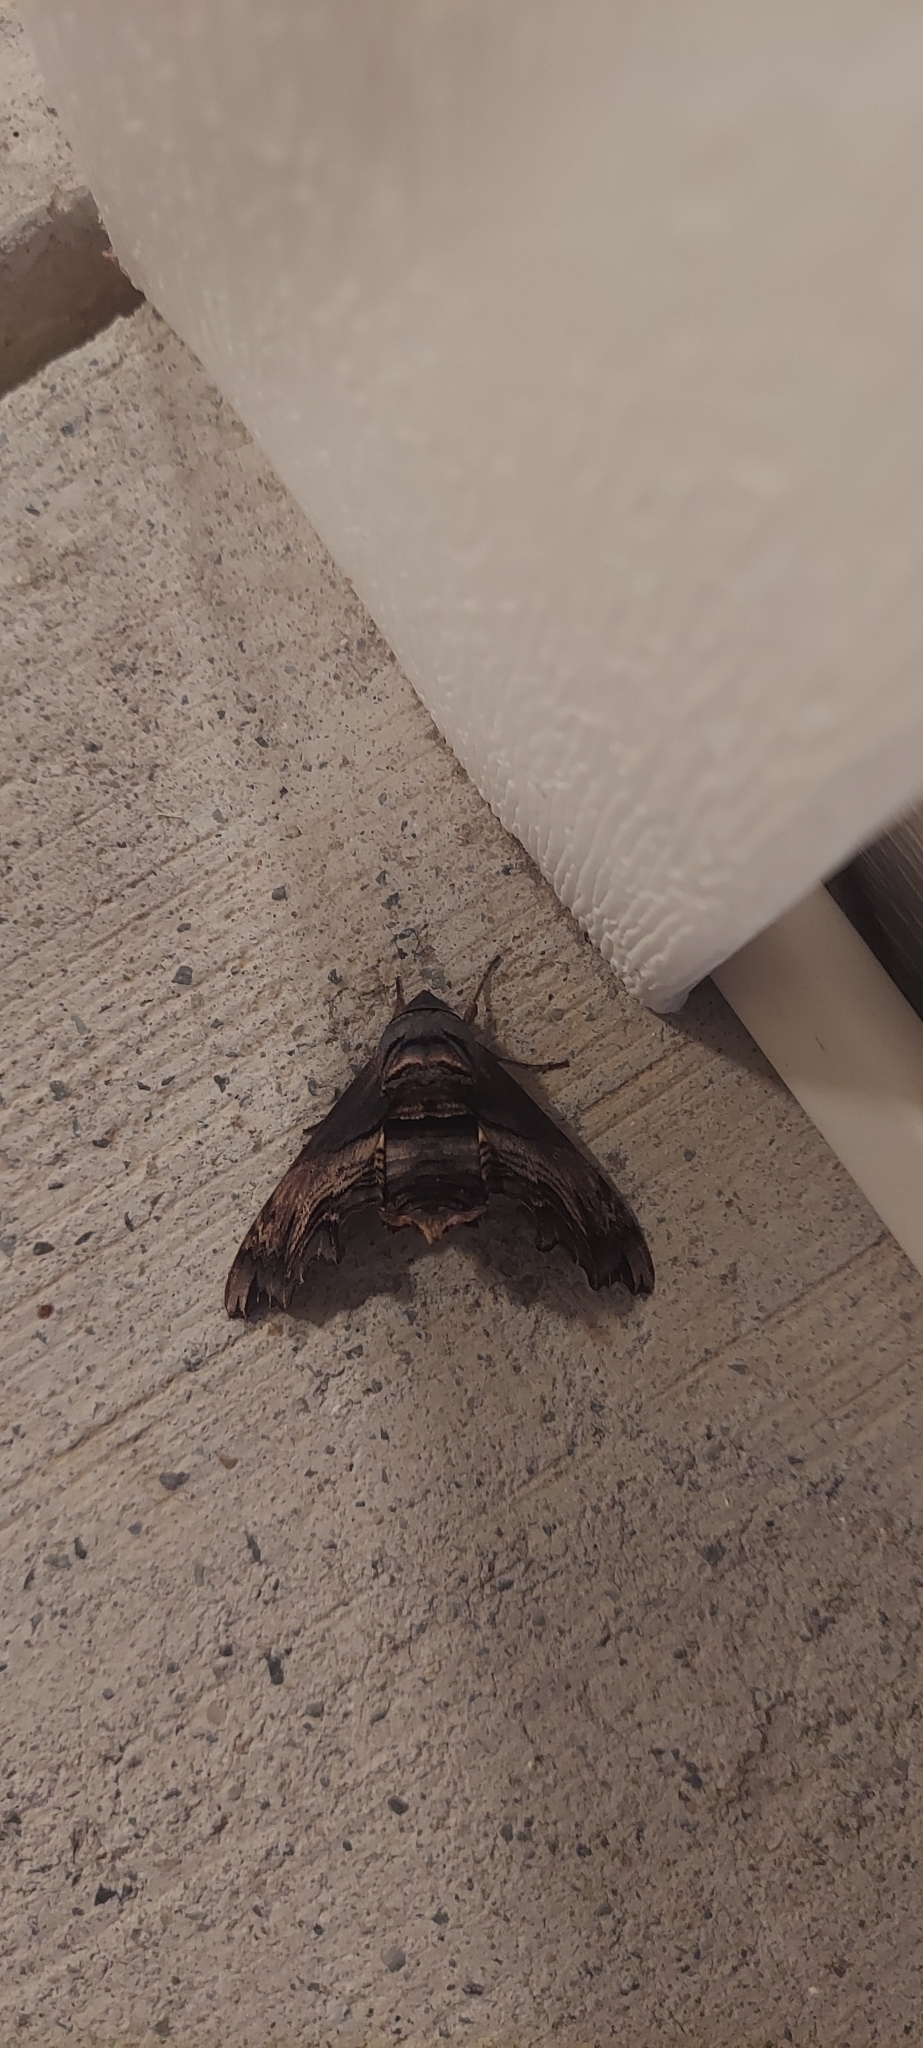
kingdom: Animalia
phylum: Arthropoda
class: Insecta
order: Lepidoptera
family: Sphingidae
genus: Sphecodina
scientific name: Sphecodina abbottii
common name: Abbott's sphinx
